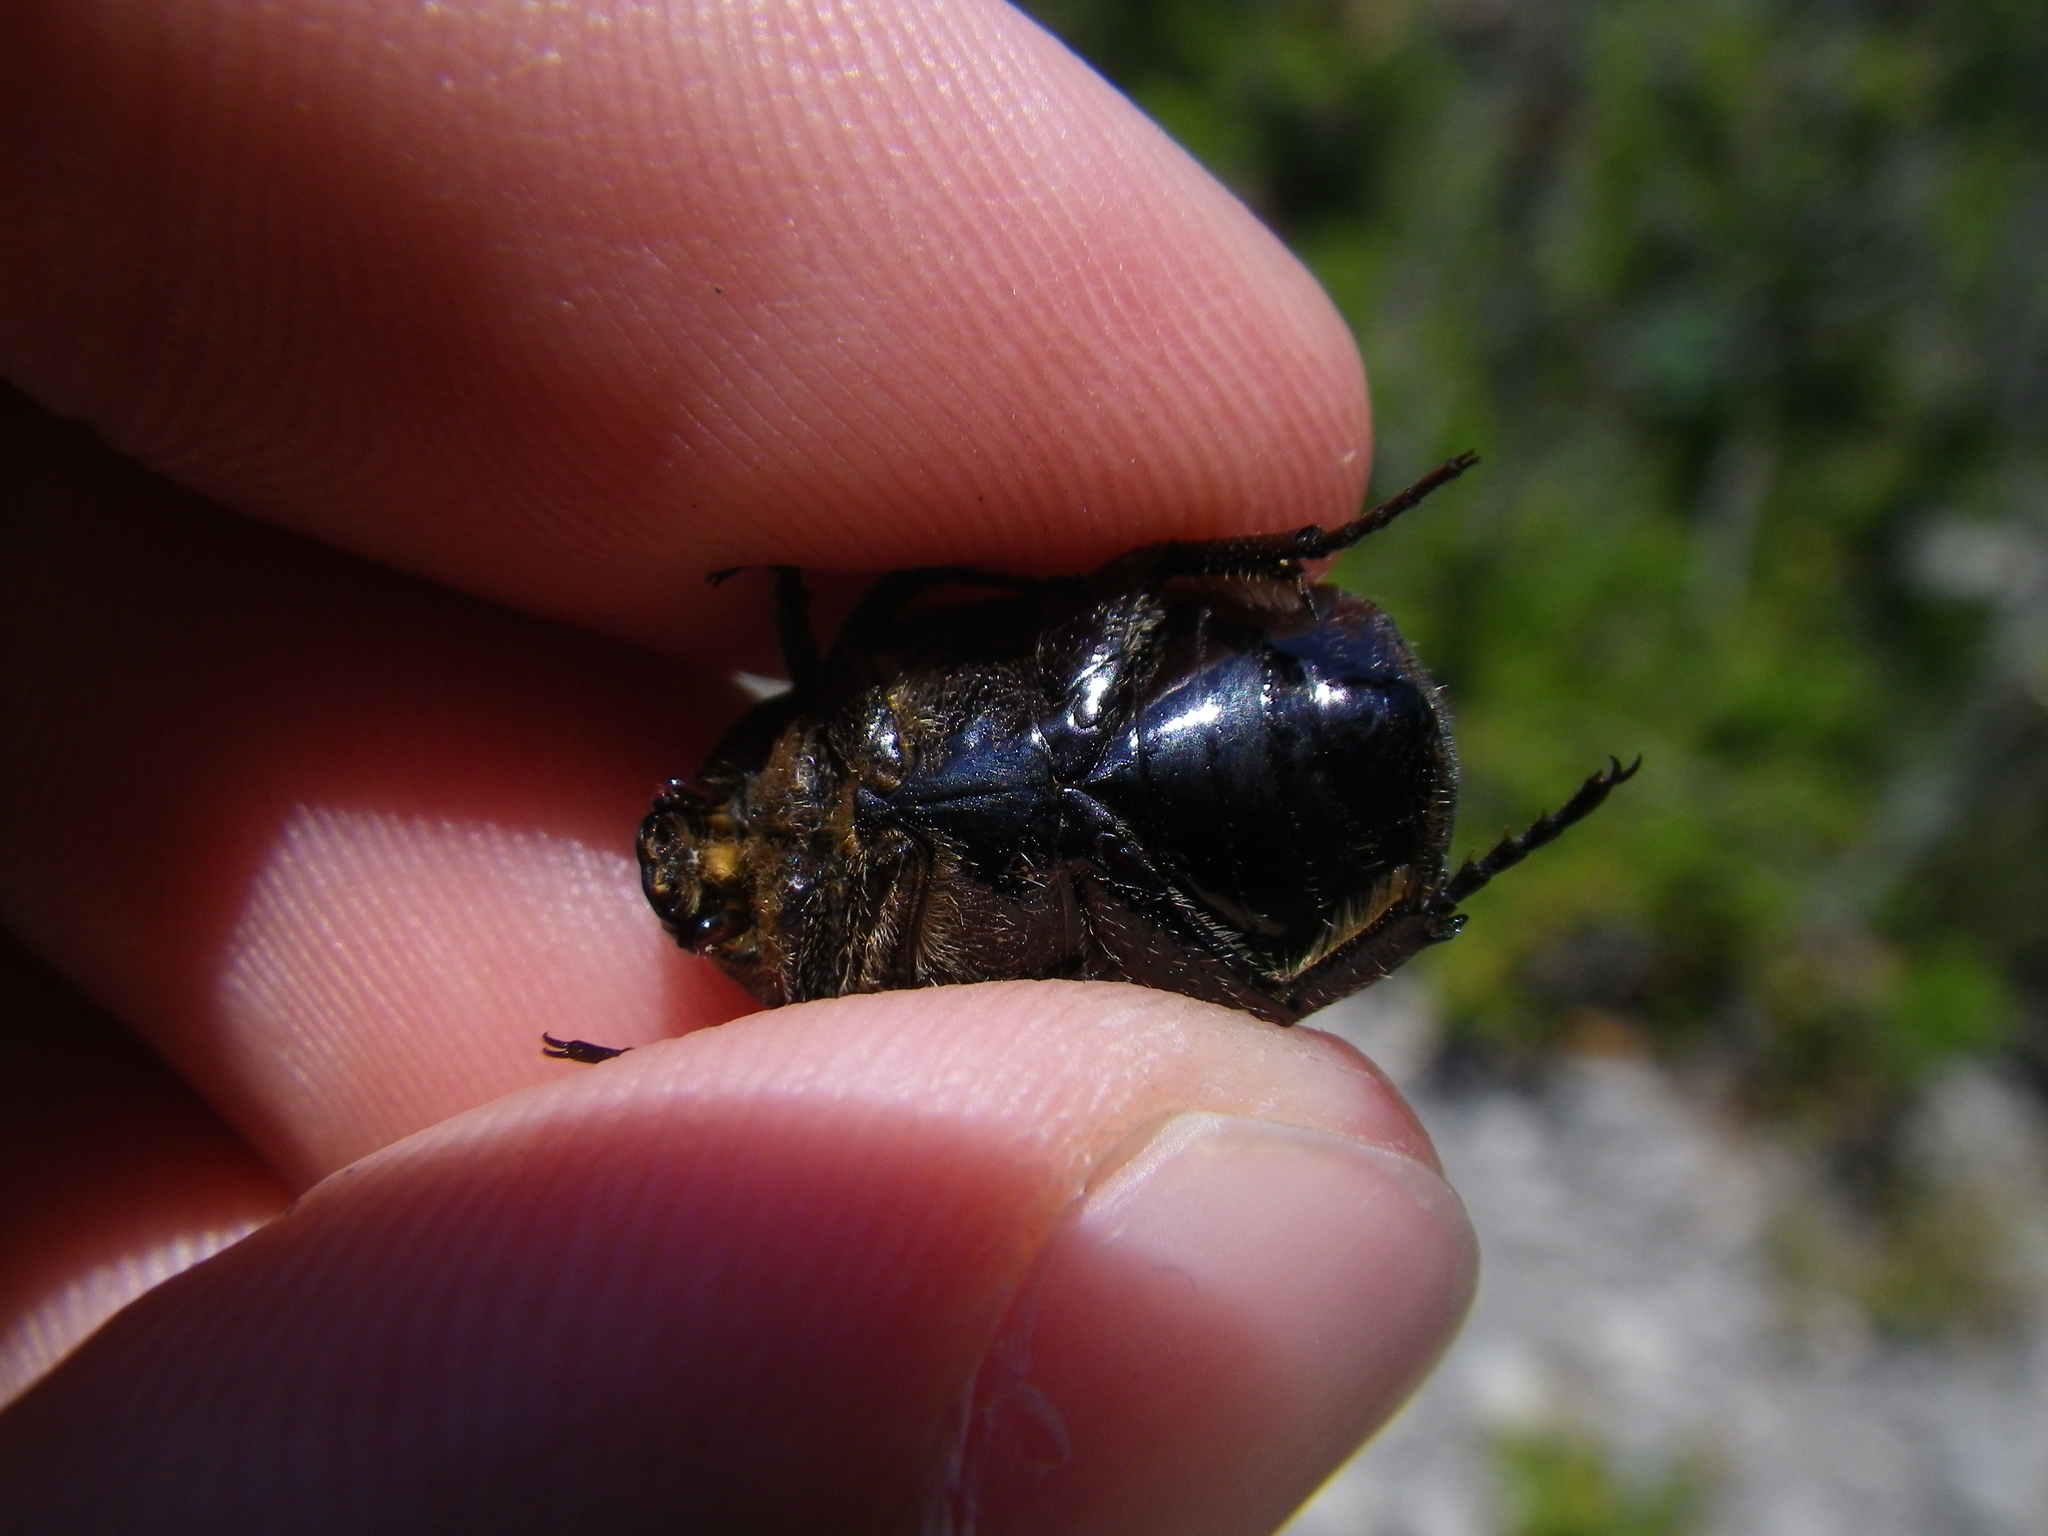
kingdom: Animalia
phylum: Arthropoda
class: Insecta
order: Coleoptera
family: Scarabaeidae
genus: Protaetia
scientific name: Protaetia morio
